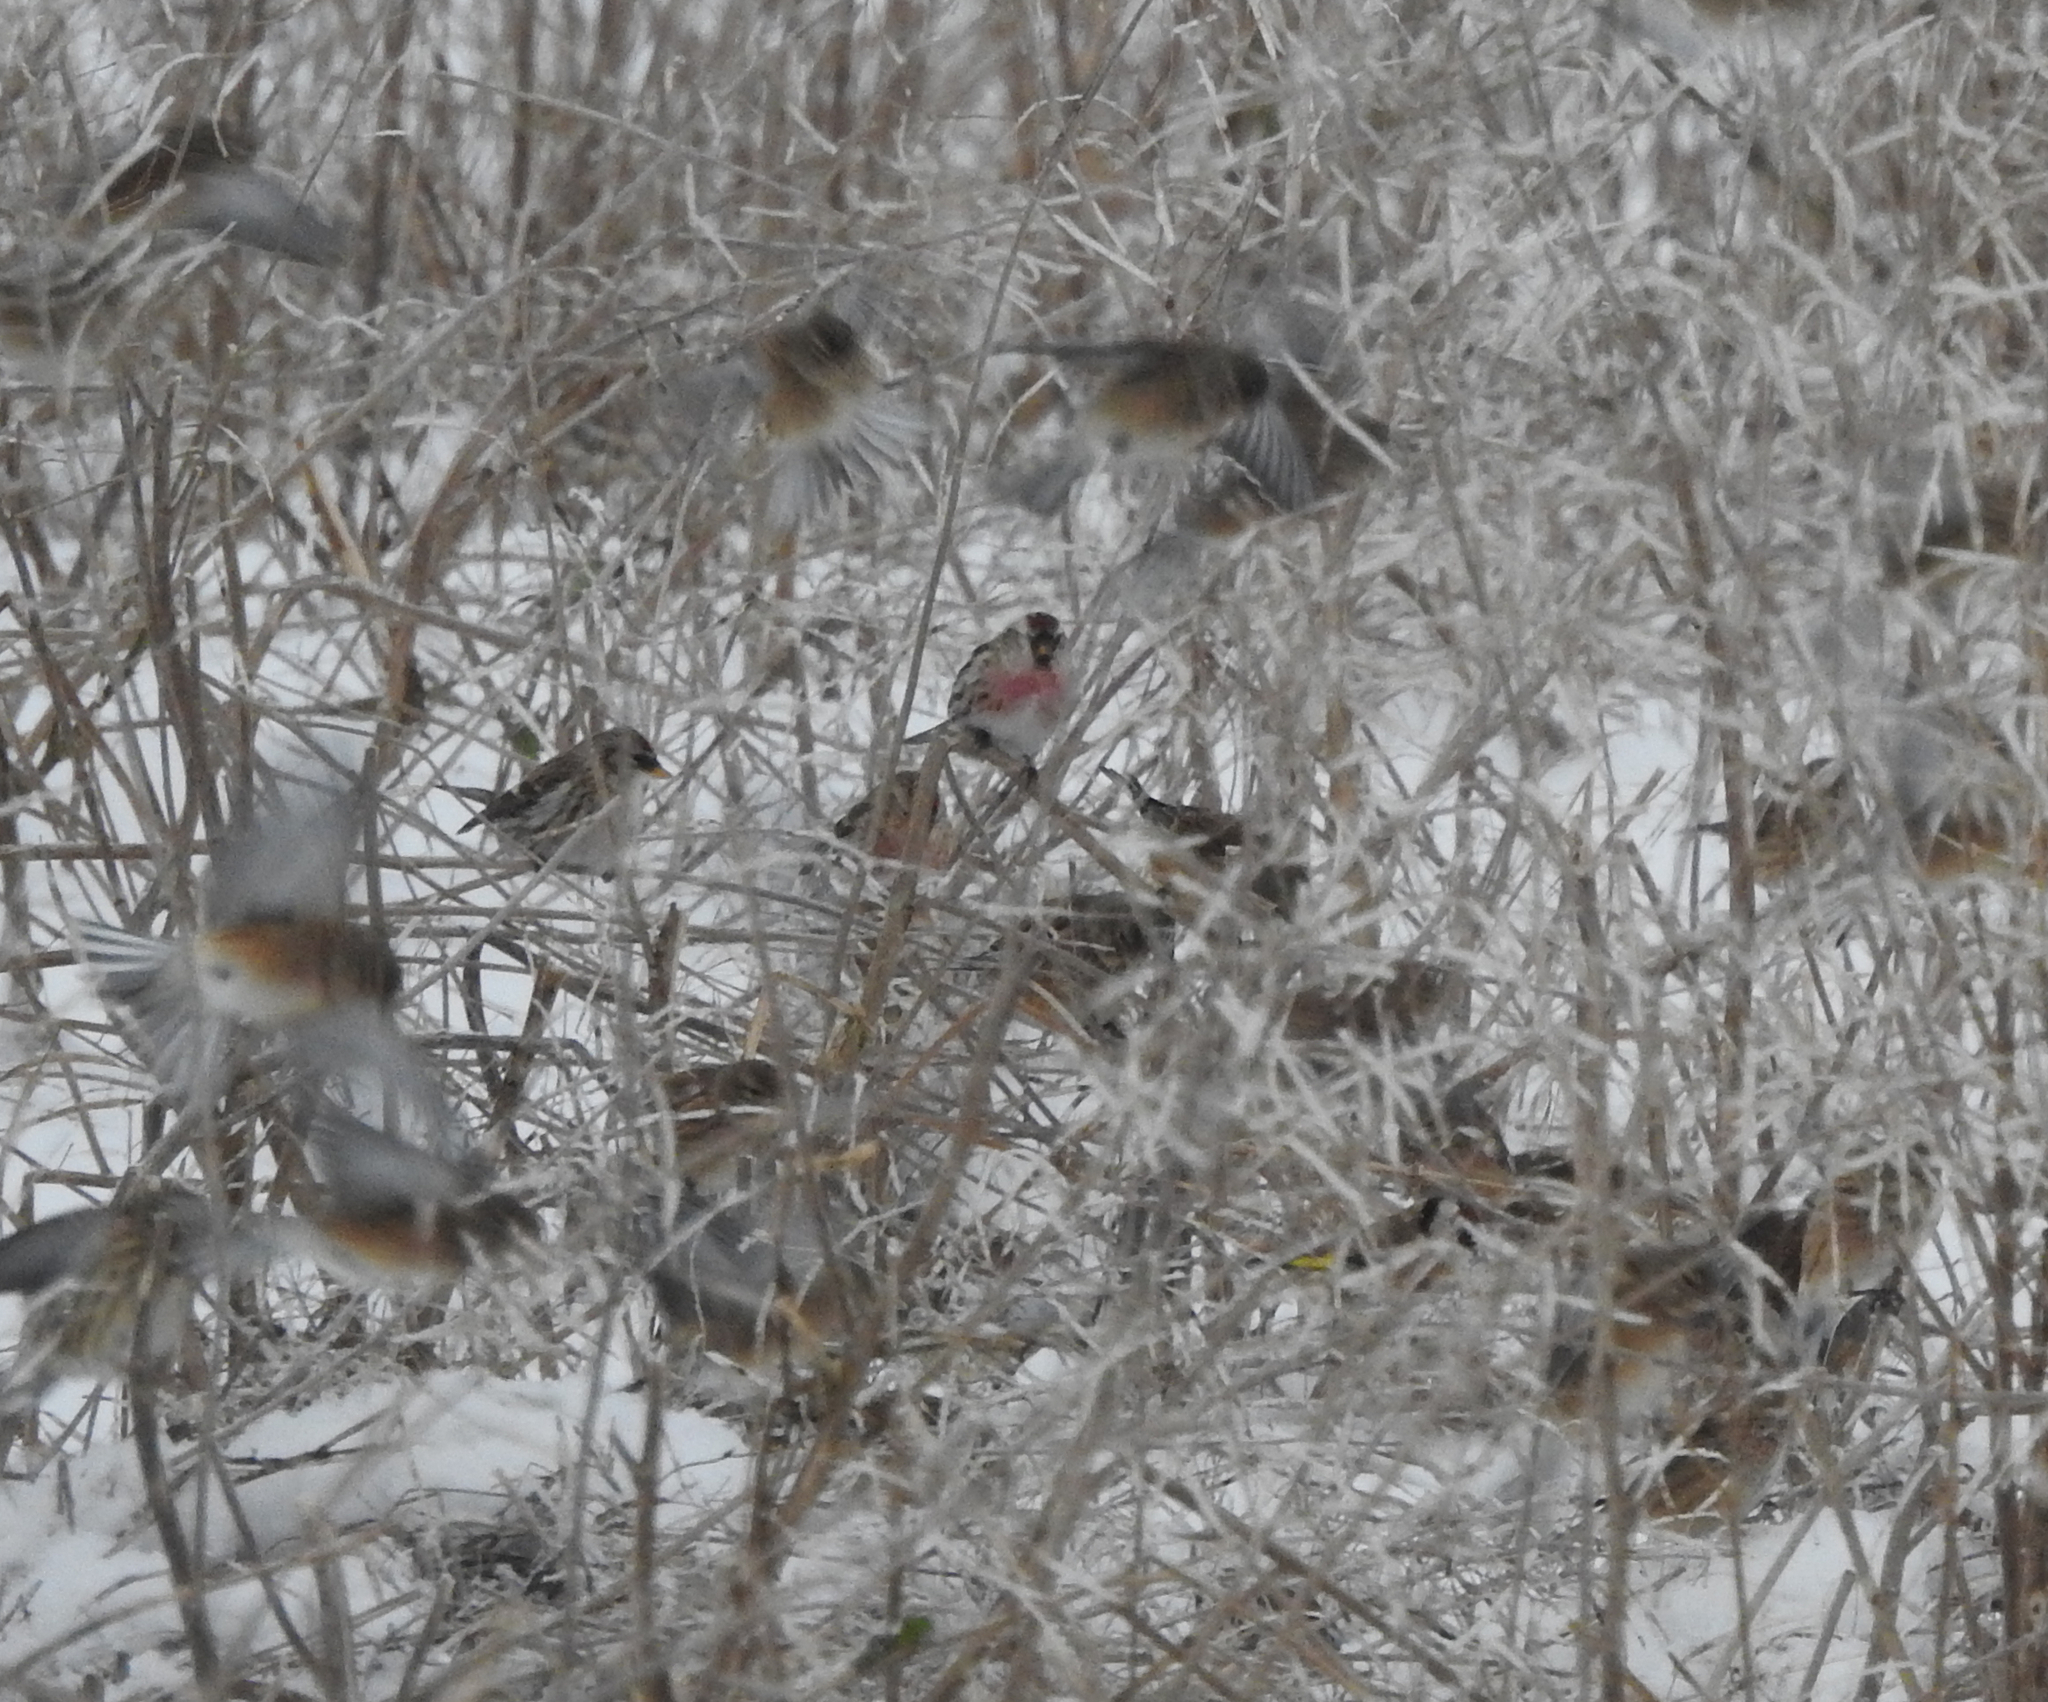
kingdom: Animalia
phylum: Chordata
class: Aves
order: Passeriformes
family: Fringillidae
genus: Acanthis
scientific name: Acanthis flammea
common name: Common redpoll
